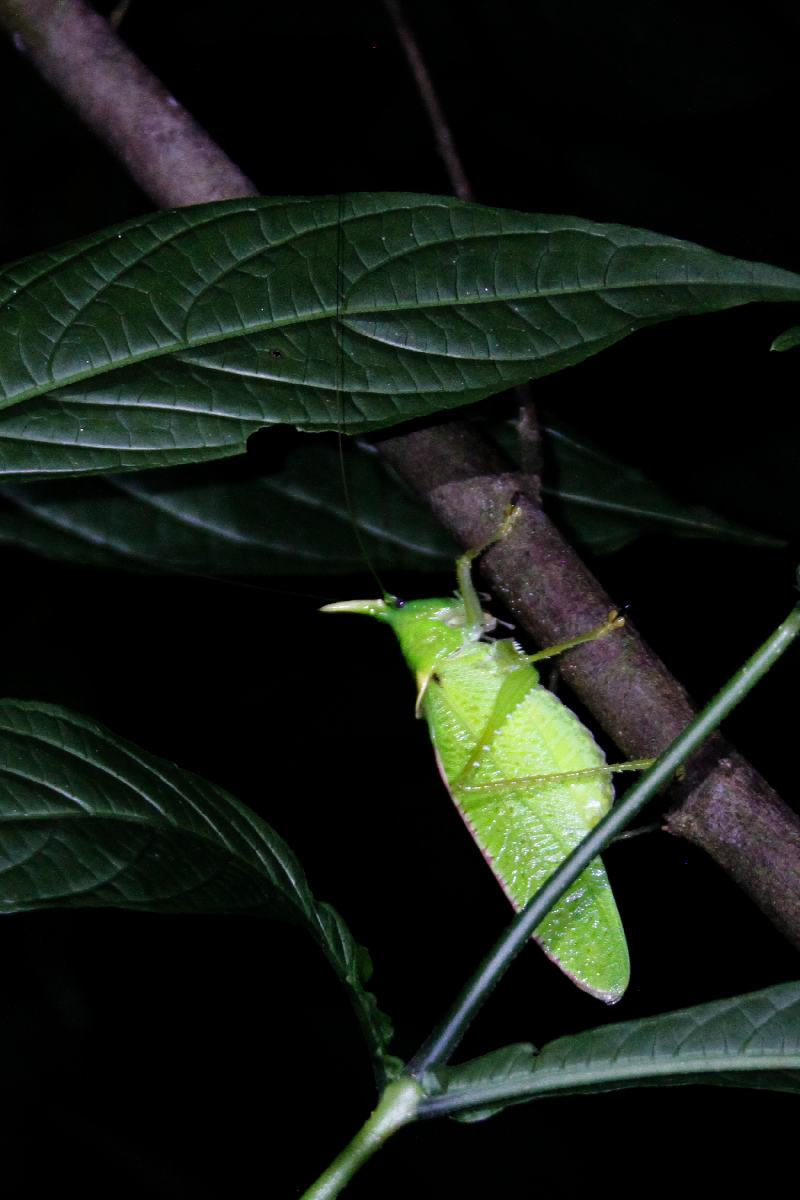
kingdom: Animalia
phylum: Arthropoda
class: Insecta
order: Orthoptera
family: Tettigoniidae
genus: Copiphora
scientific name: Copiphora rhinoceros
